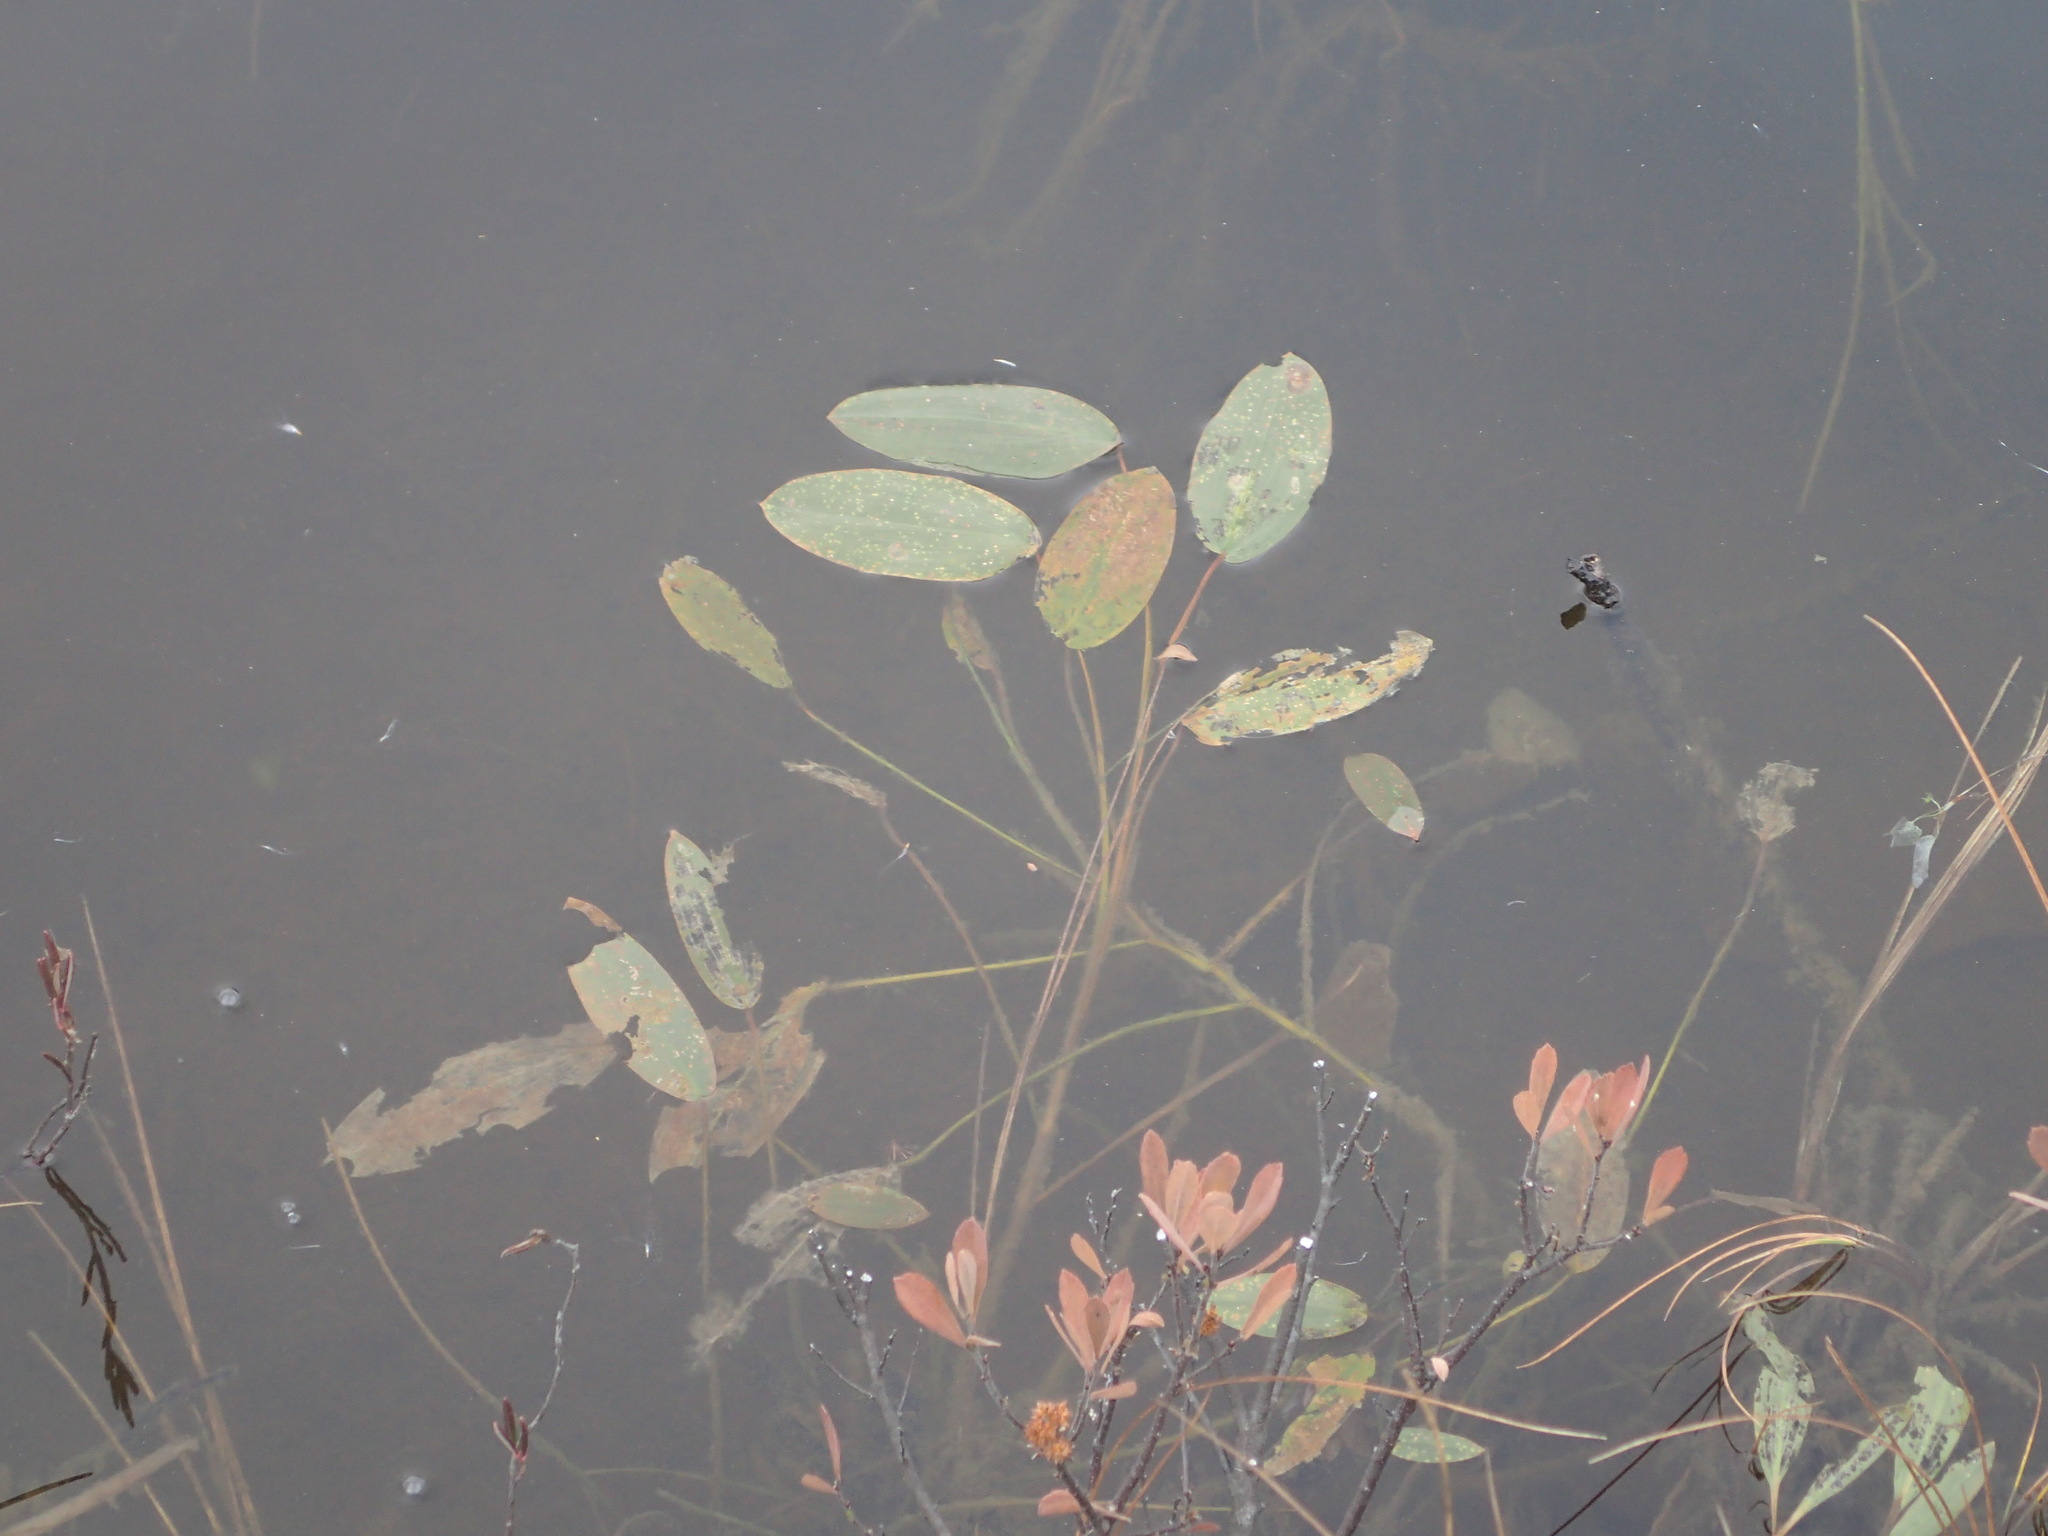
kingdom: Plantae
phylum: Tracheophyta
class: Liliopsida
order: Alismatales
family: Potamogetonaceae
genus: Potamogeton
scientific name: Potamogeton natans
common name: Broad-leaved pondweed
